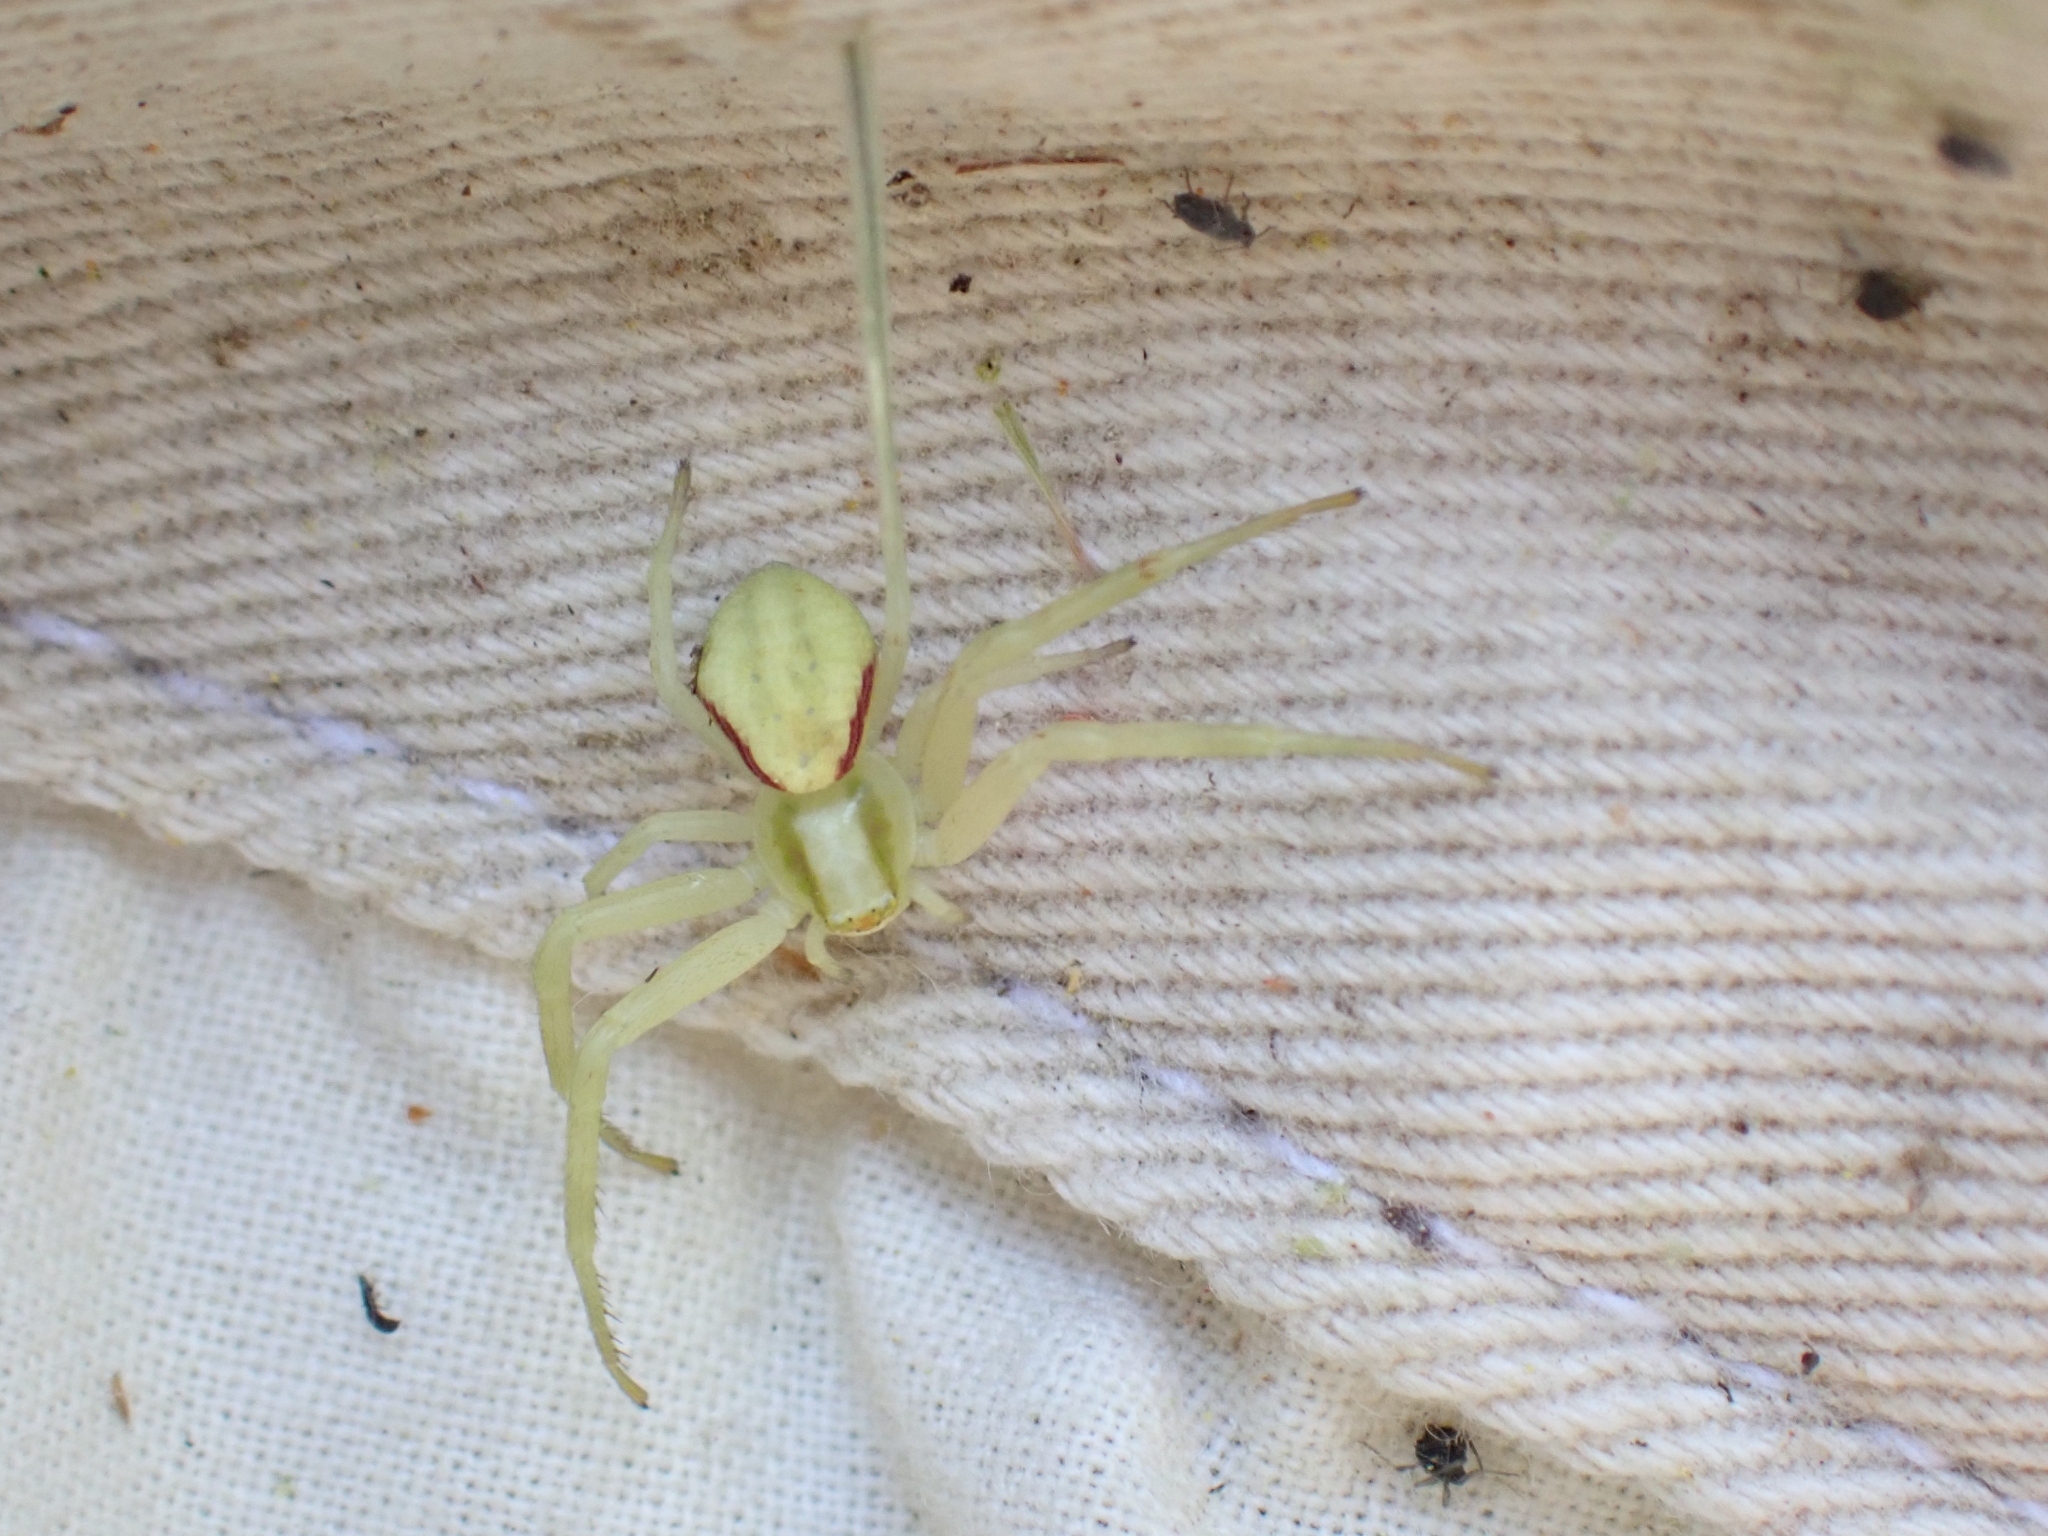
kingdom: Animalia
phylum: Arthropoda
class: Arachnida
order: Araneae
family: Thomisidae
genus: Misumena
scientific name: Misumena vatia
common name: Goldenrod crab spider
